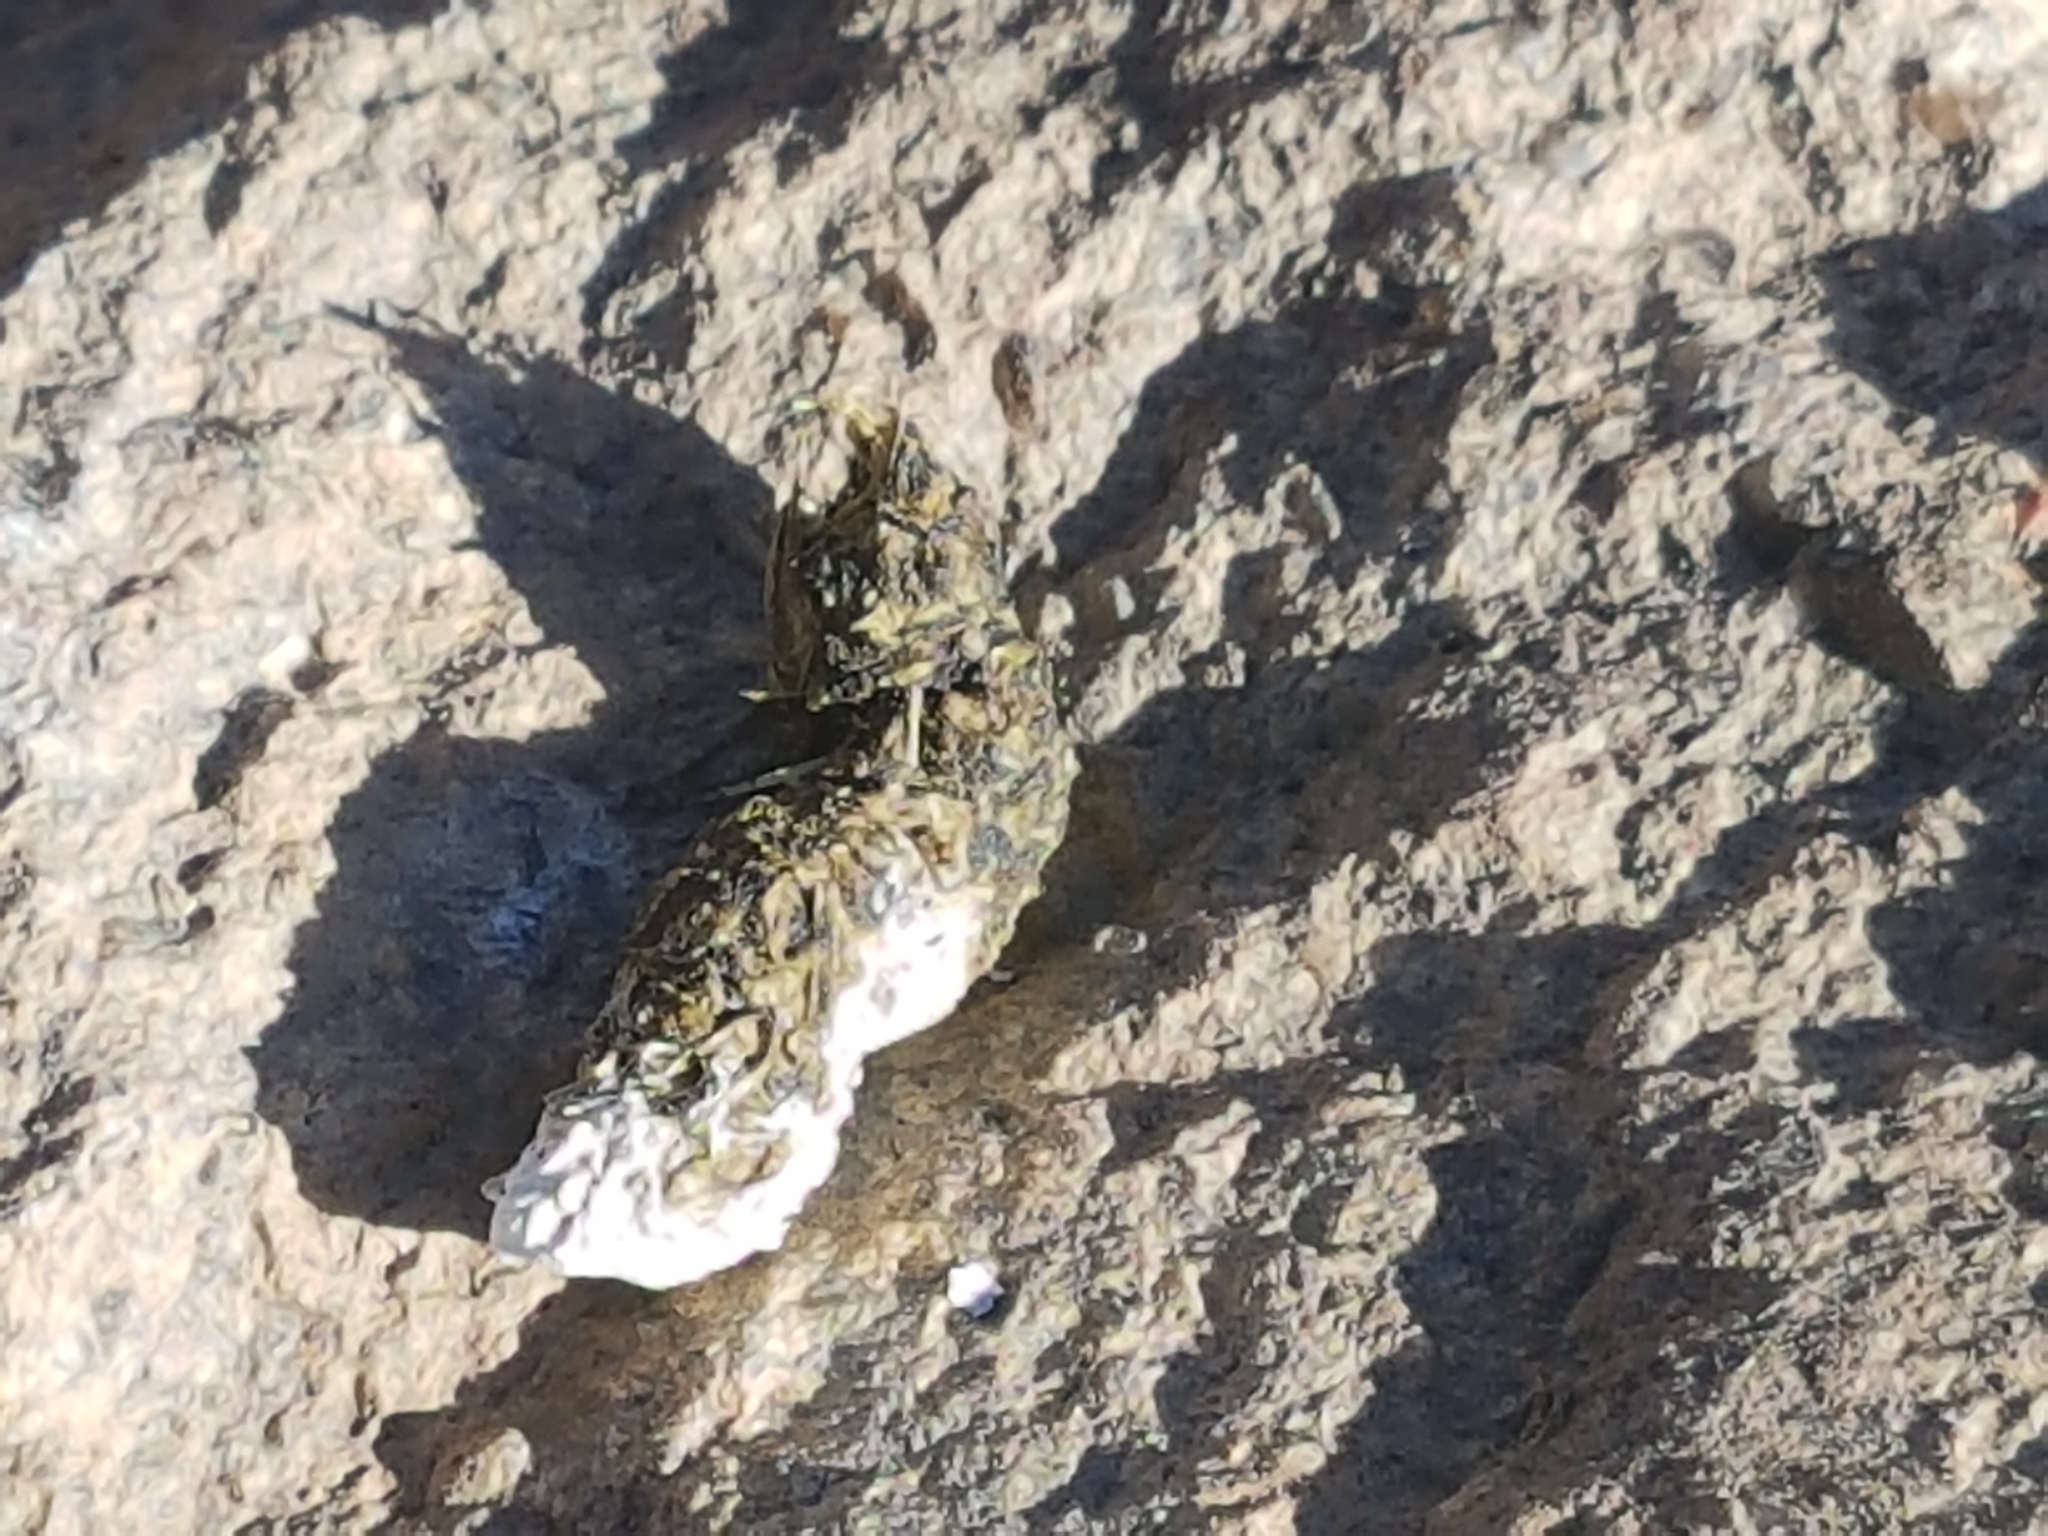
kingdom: Animalia
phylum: Chordata
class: Aves
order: Galliformes
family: Phasianidae
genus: Lagopus
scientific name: Lagopus muta
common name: Rock ptarmigan
